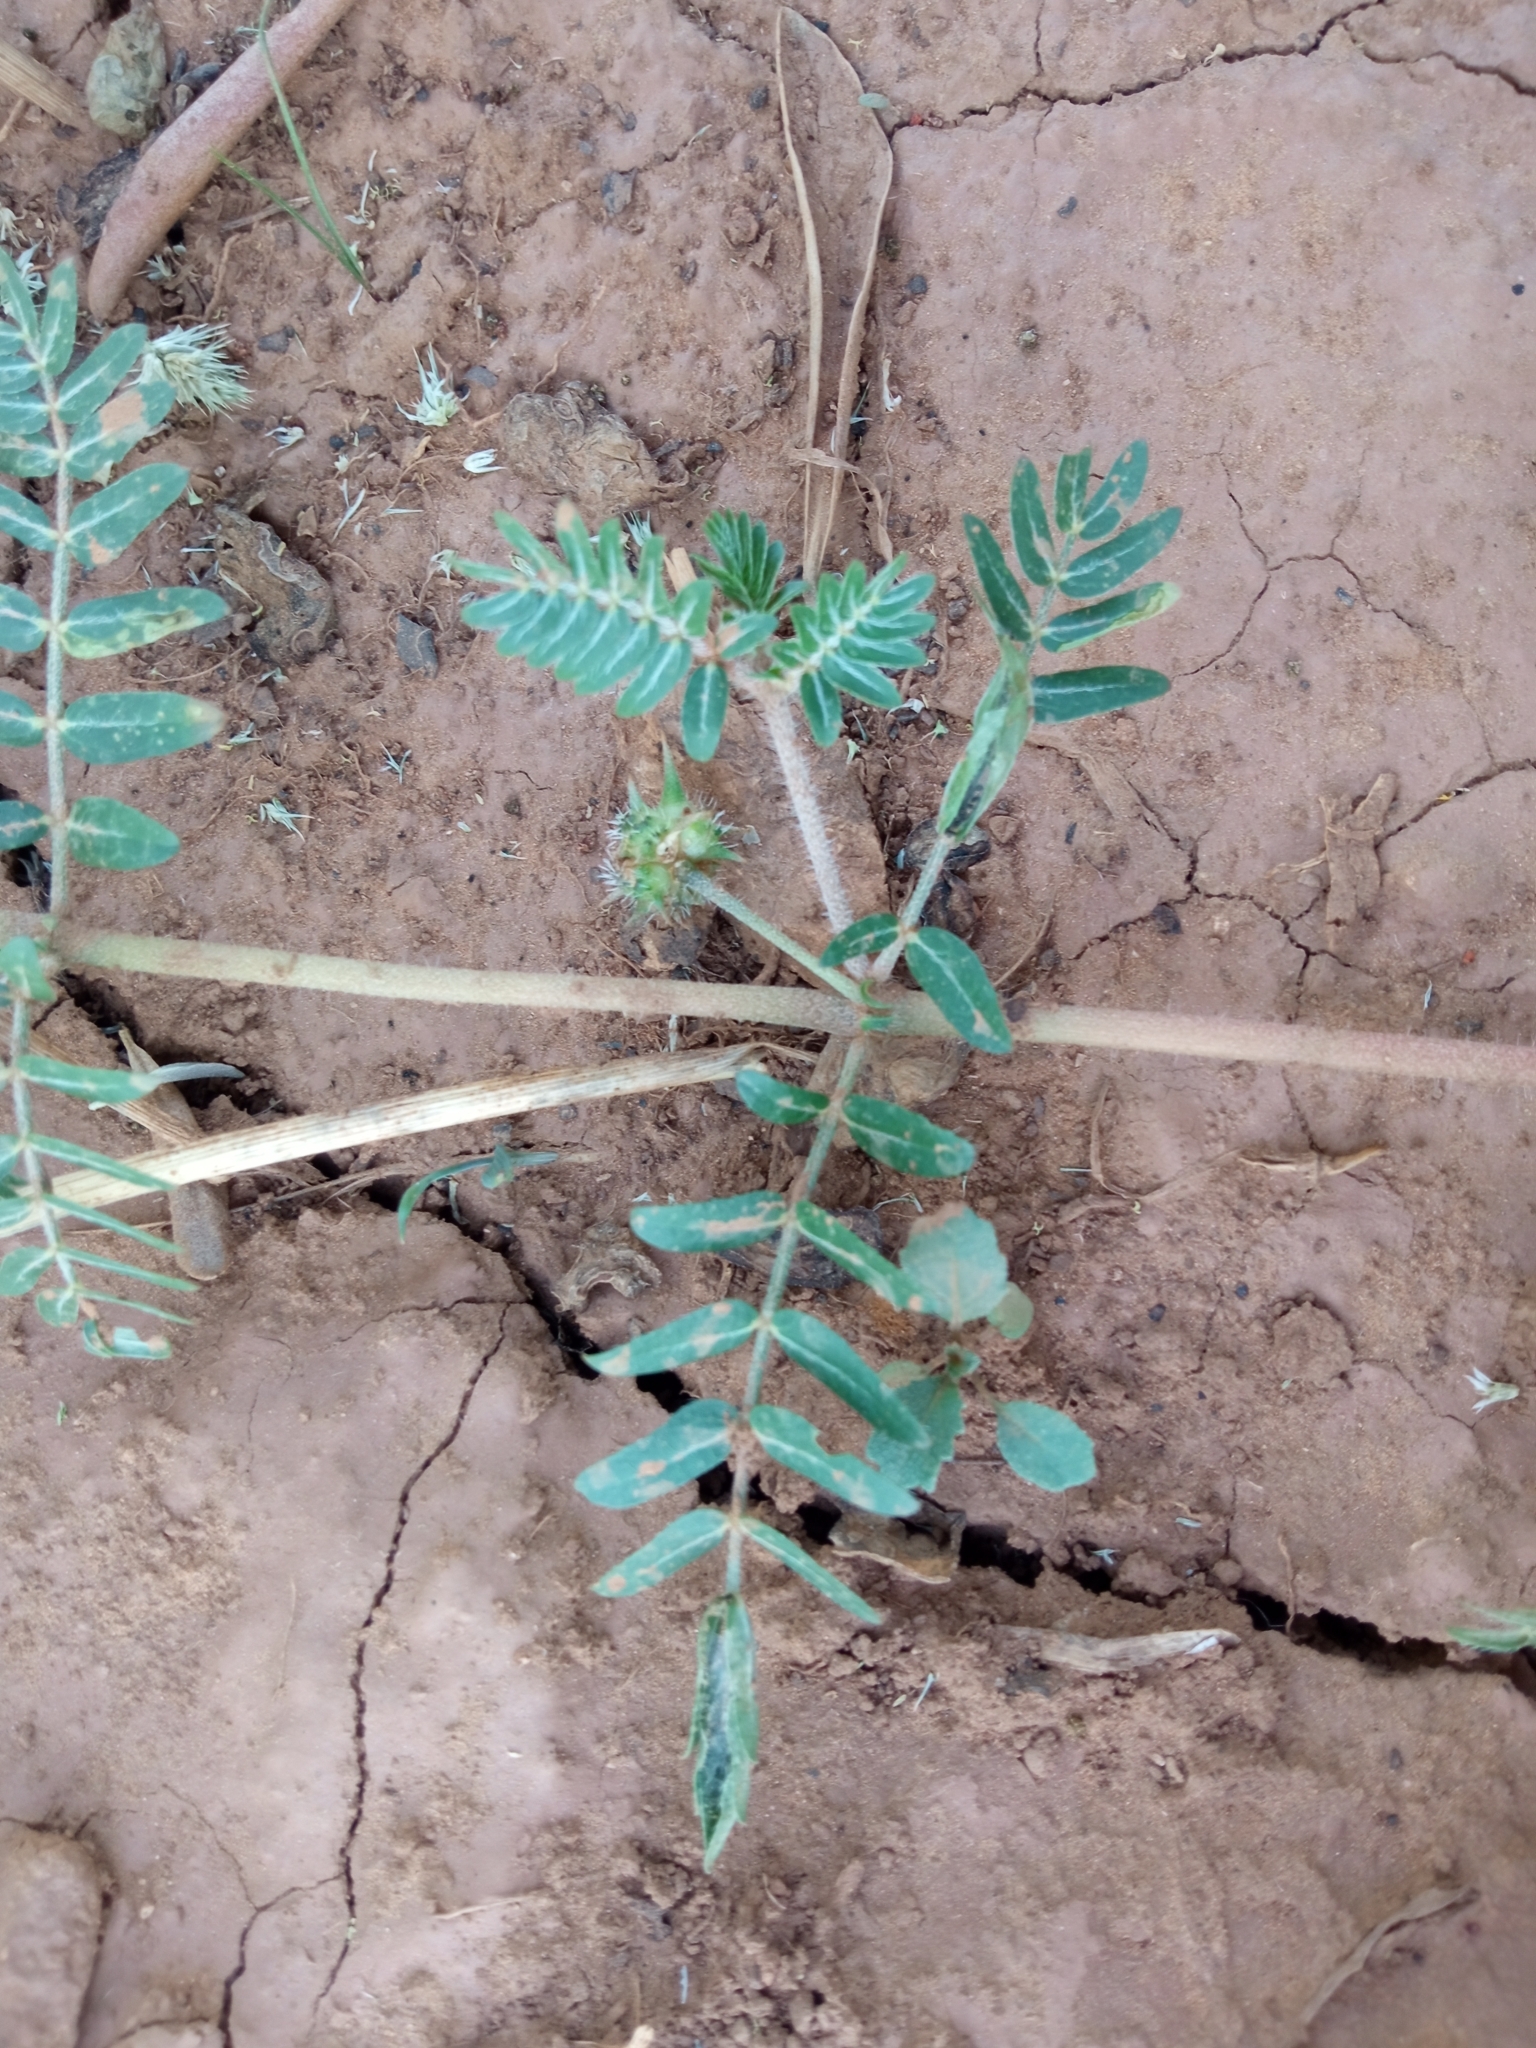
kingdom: Plantae
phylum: Tracheophyta
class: Magnoliopsida
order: Zygophyllales
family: Zygophyllaceae
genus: Tribulus
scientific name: Tribulus terrestris
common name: Puncturevine
